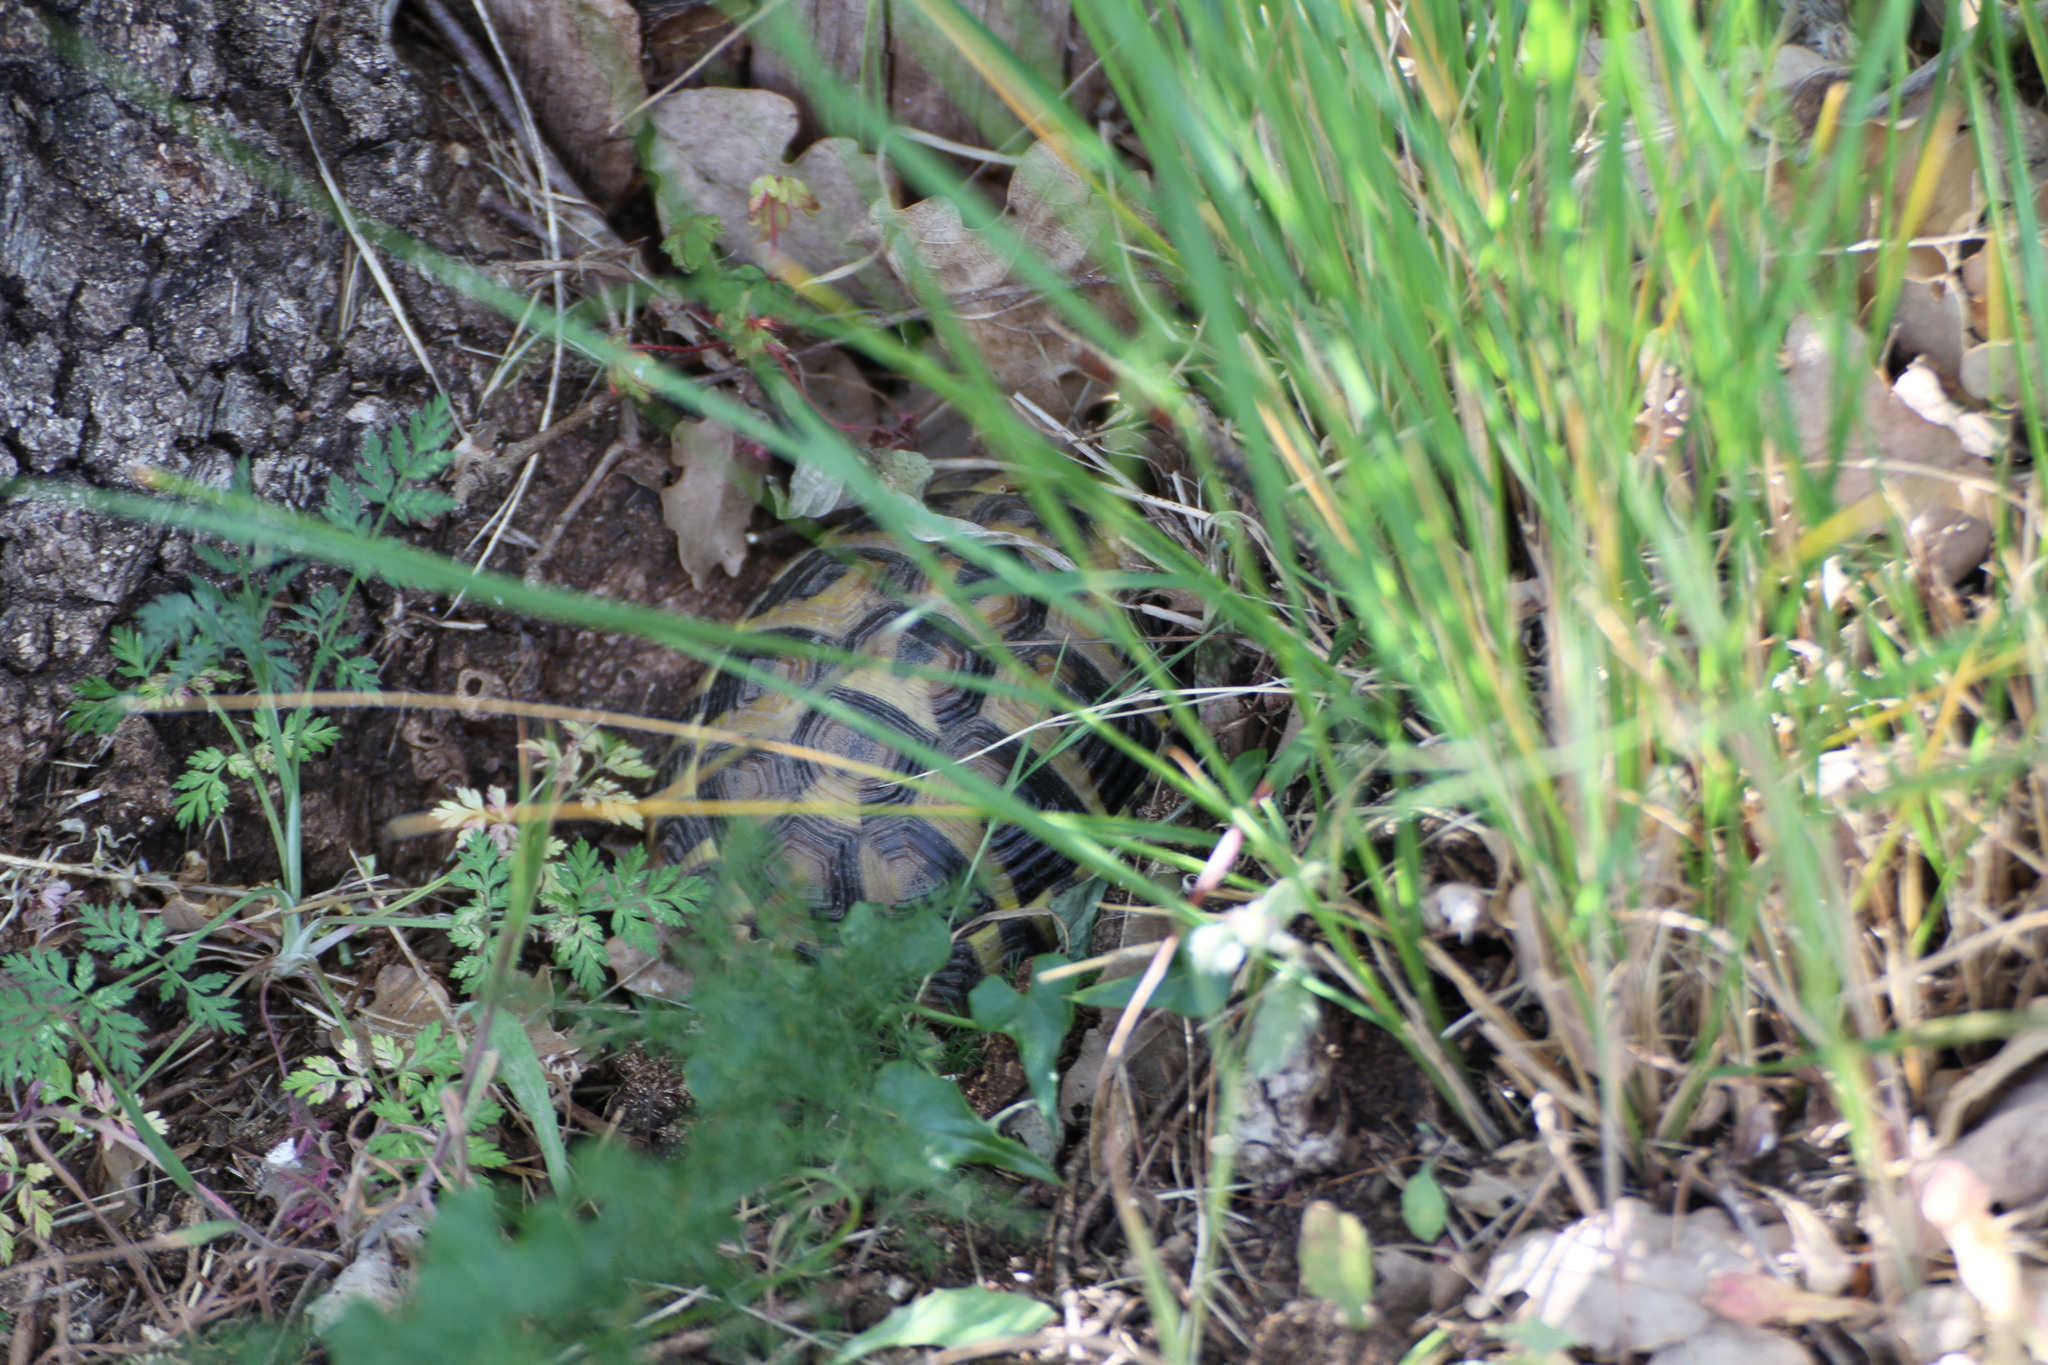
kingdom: Animalia
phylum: Chordata
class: Testudines
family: Testudinidae
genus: Testudo
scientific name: Testudo hermanni
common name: Hermann's tortoise
